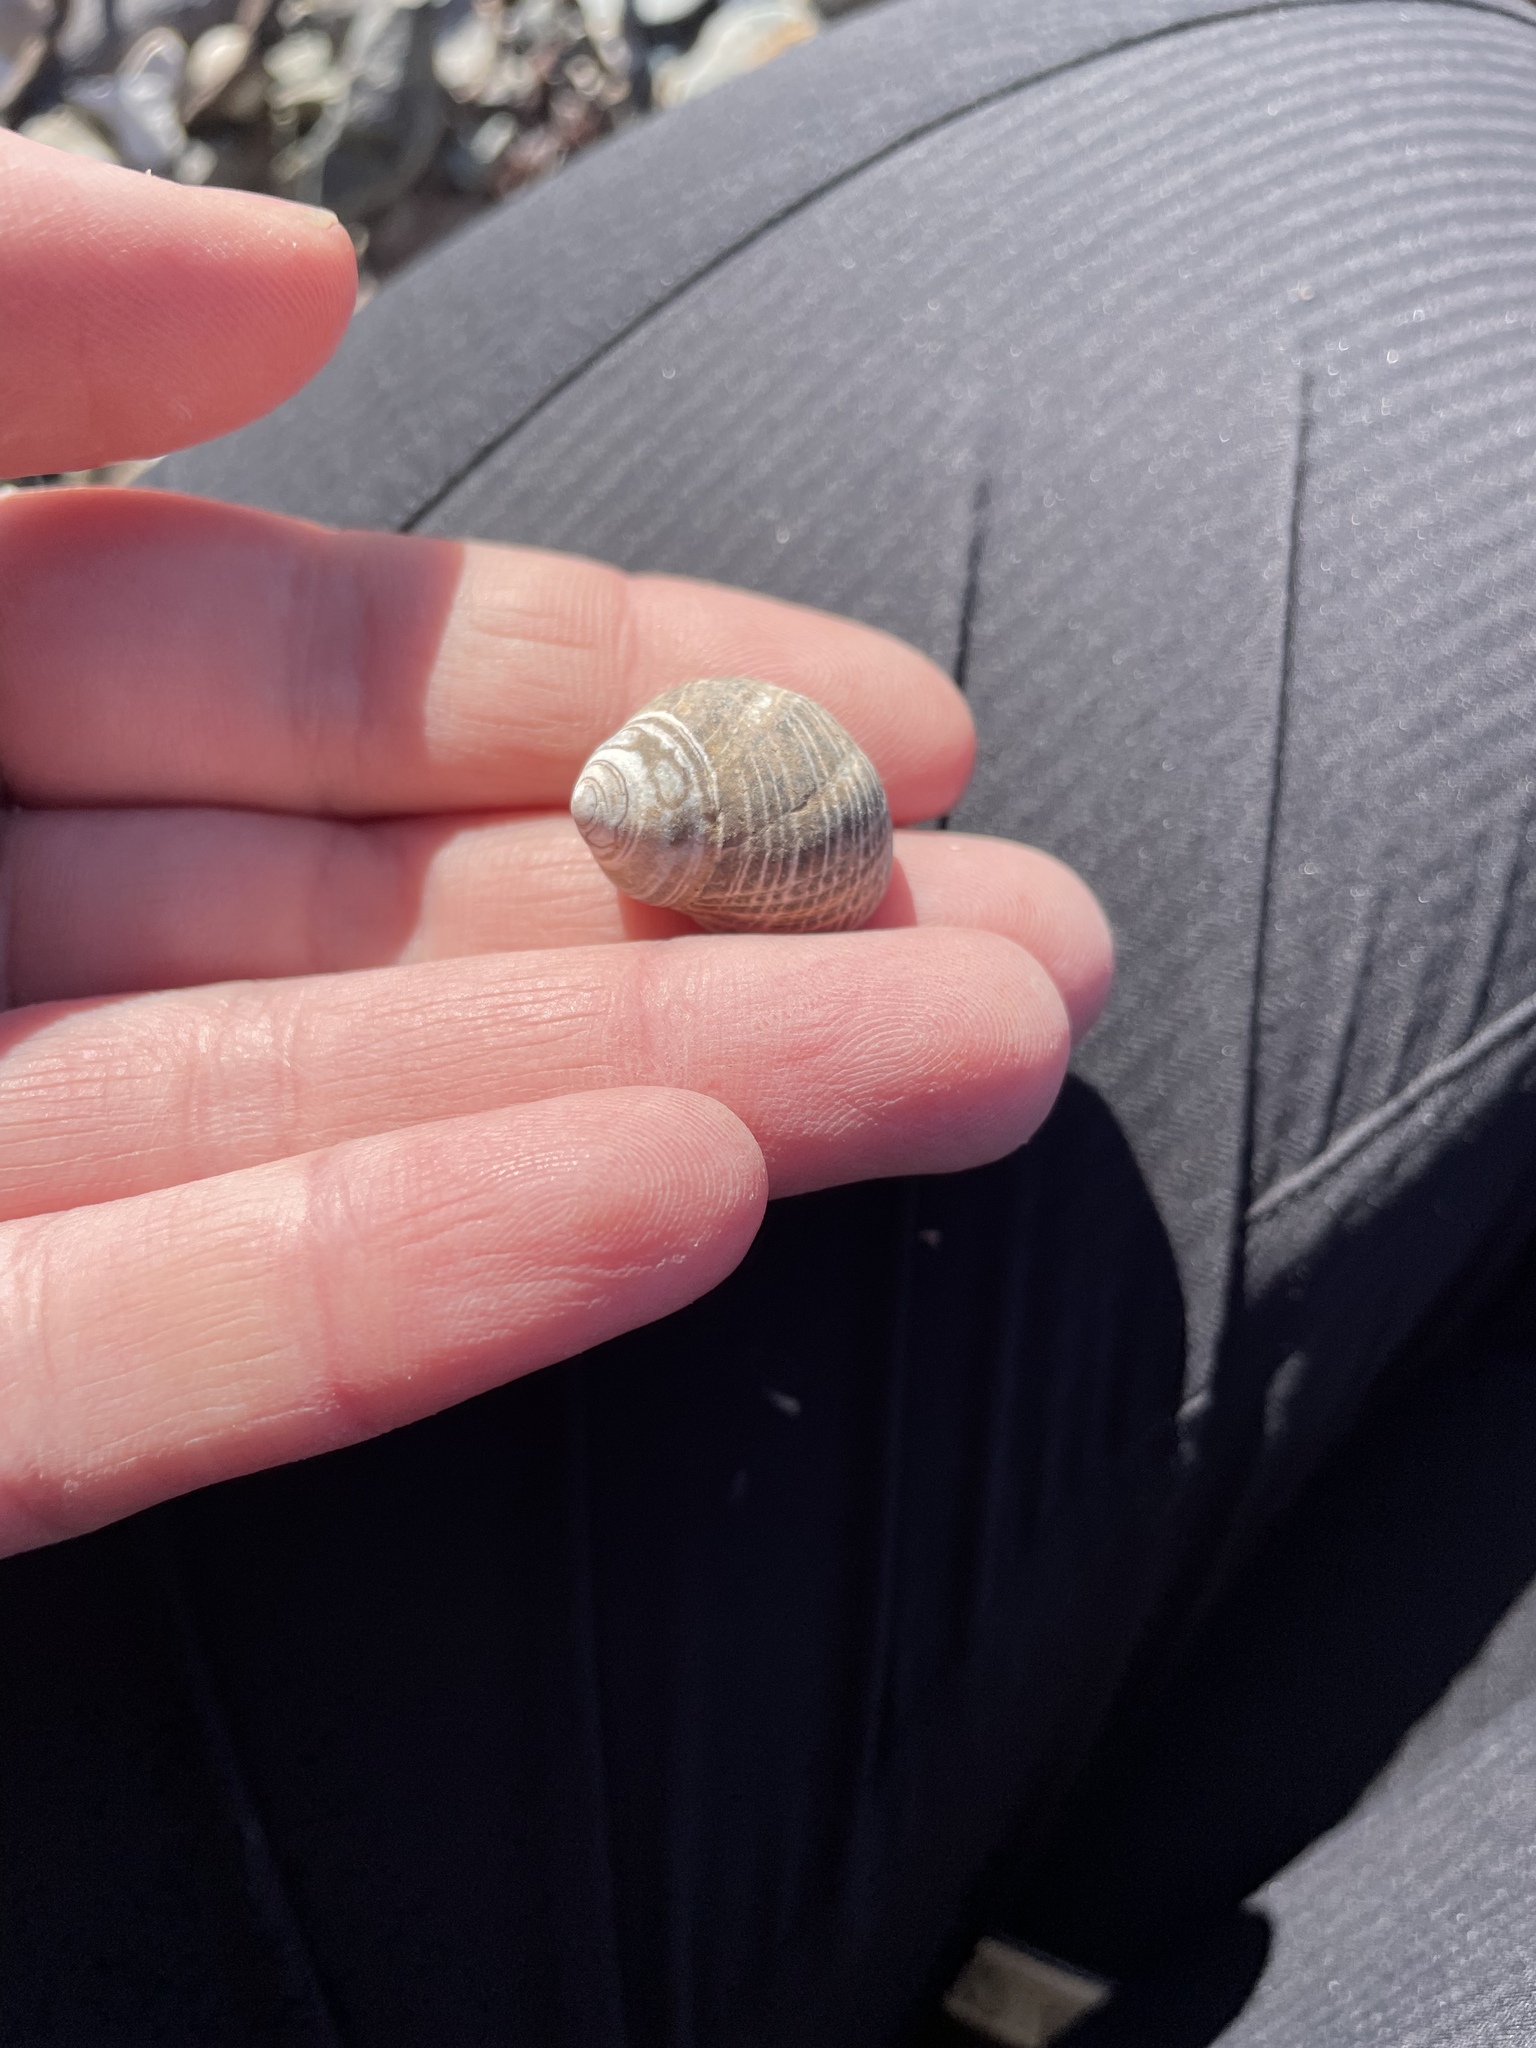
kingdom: Animalia
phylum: Mollusca
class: Gastropoda
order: Littorinimorpha
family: Littorinidae
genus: Littorina
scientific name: Littorina littorea
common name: Common periwinkle
